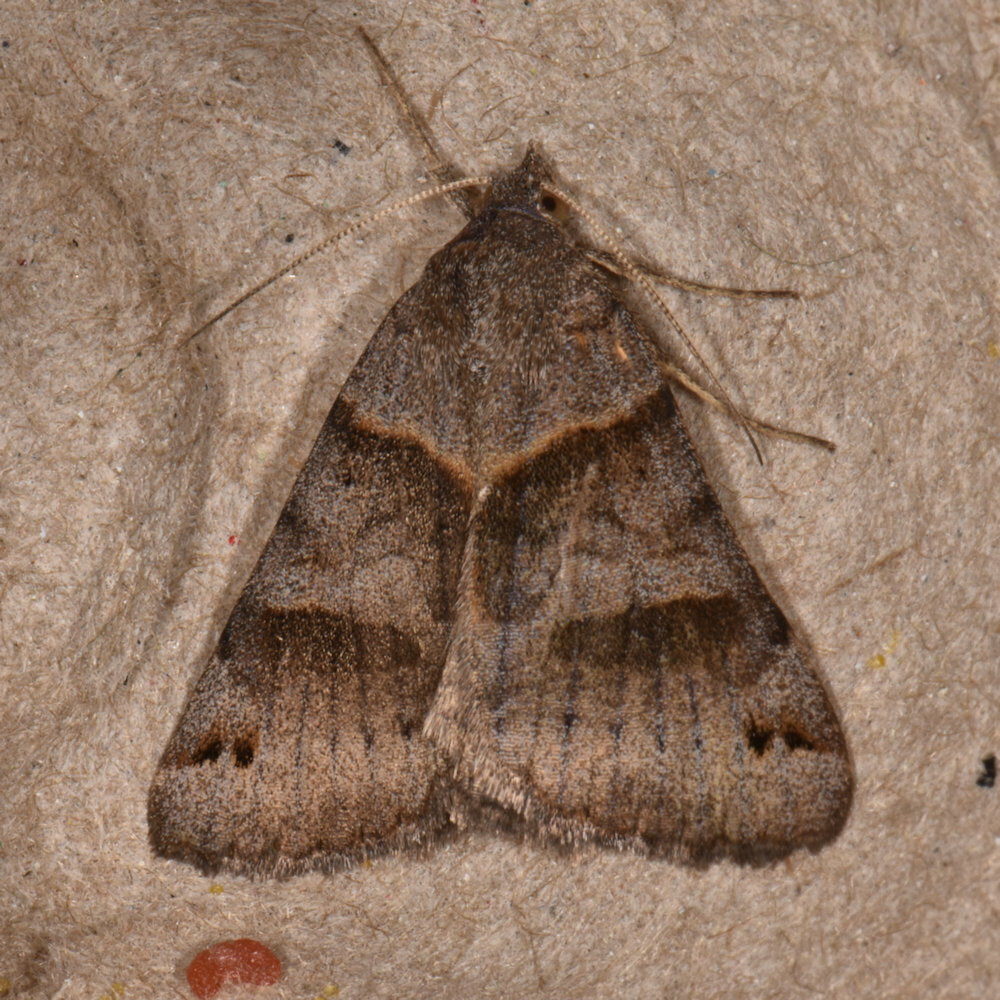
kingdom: Animalia
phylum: Arthropoda
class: Insecta
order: Lepidoptera
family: Erebidae
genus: Caenurgina
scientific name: Caenurgina crassiuscula
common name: Double-barred
